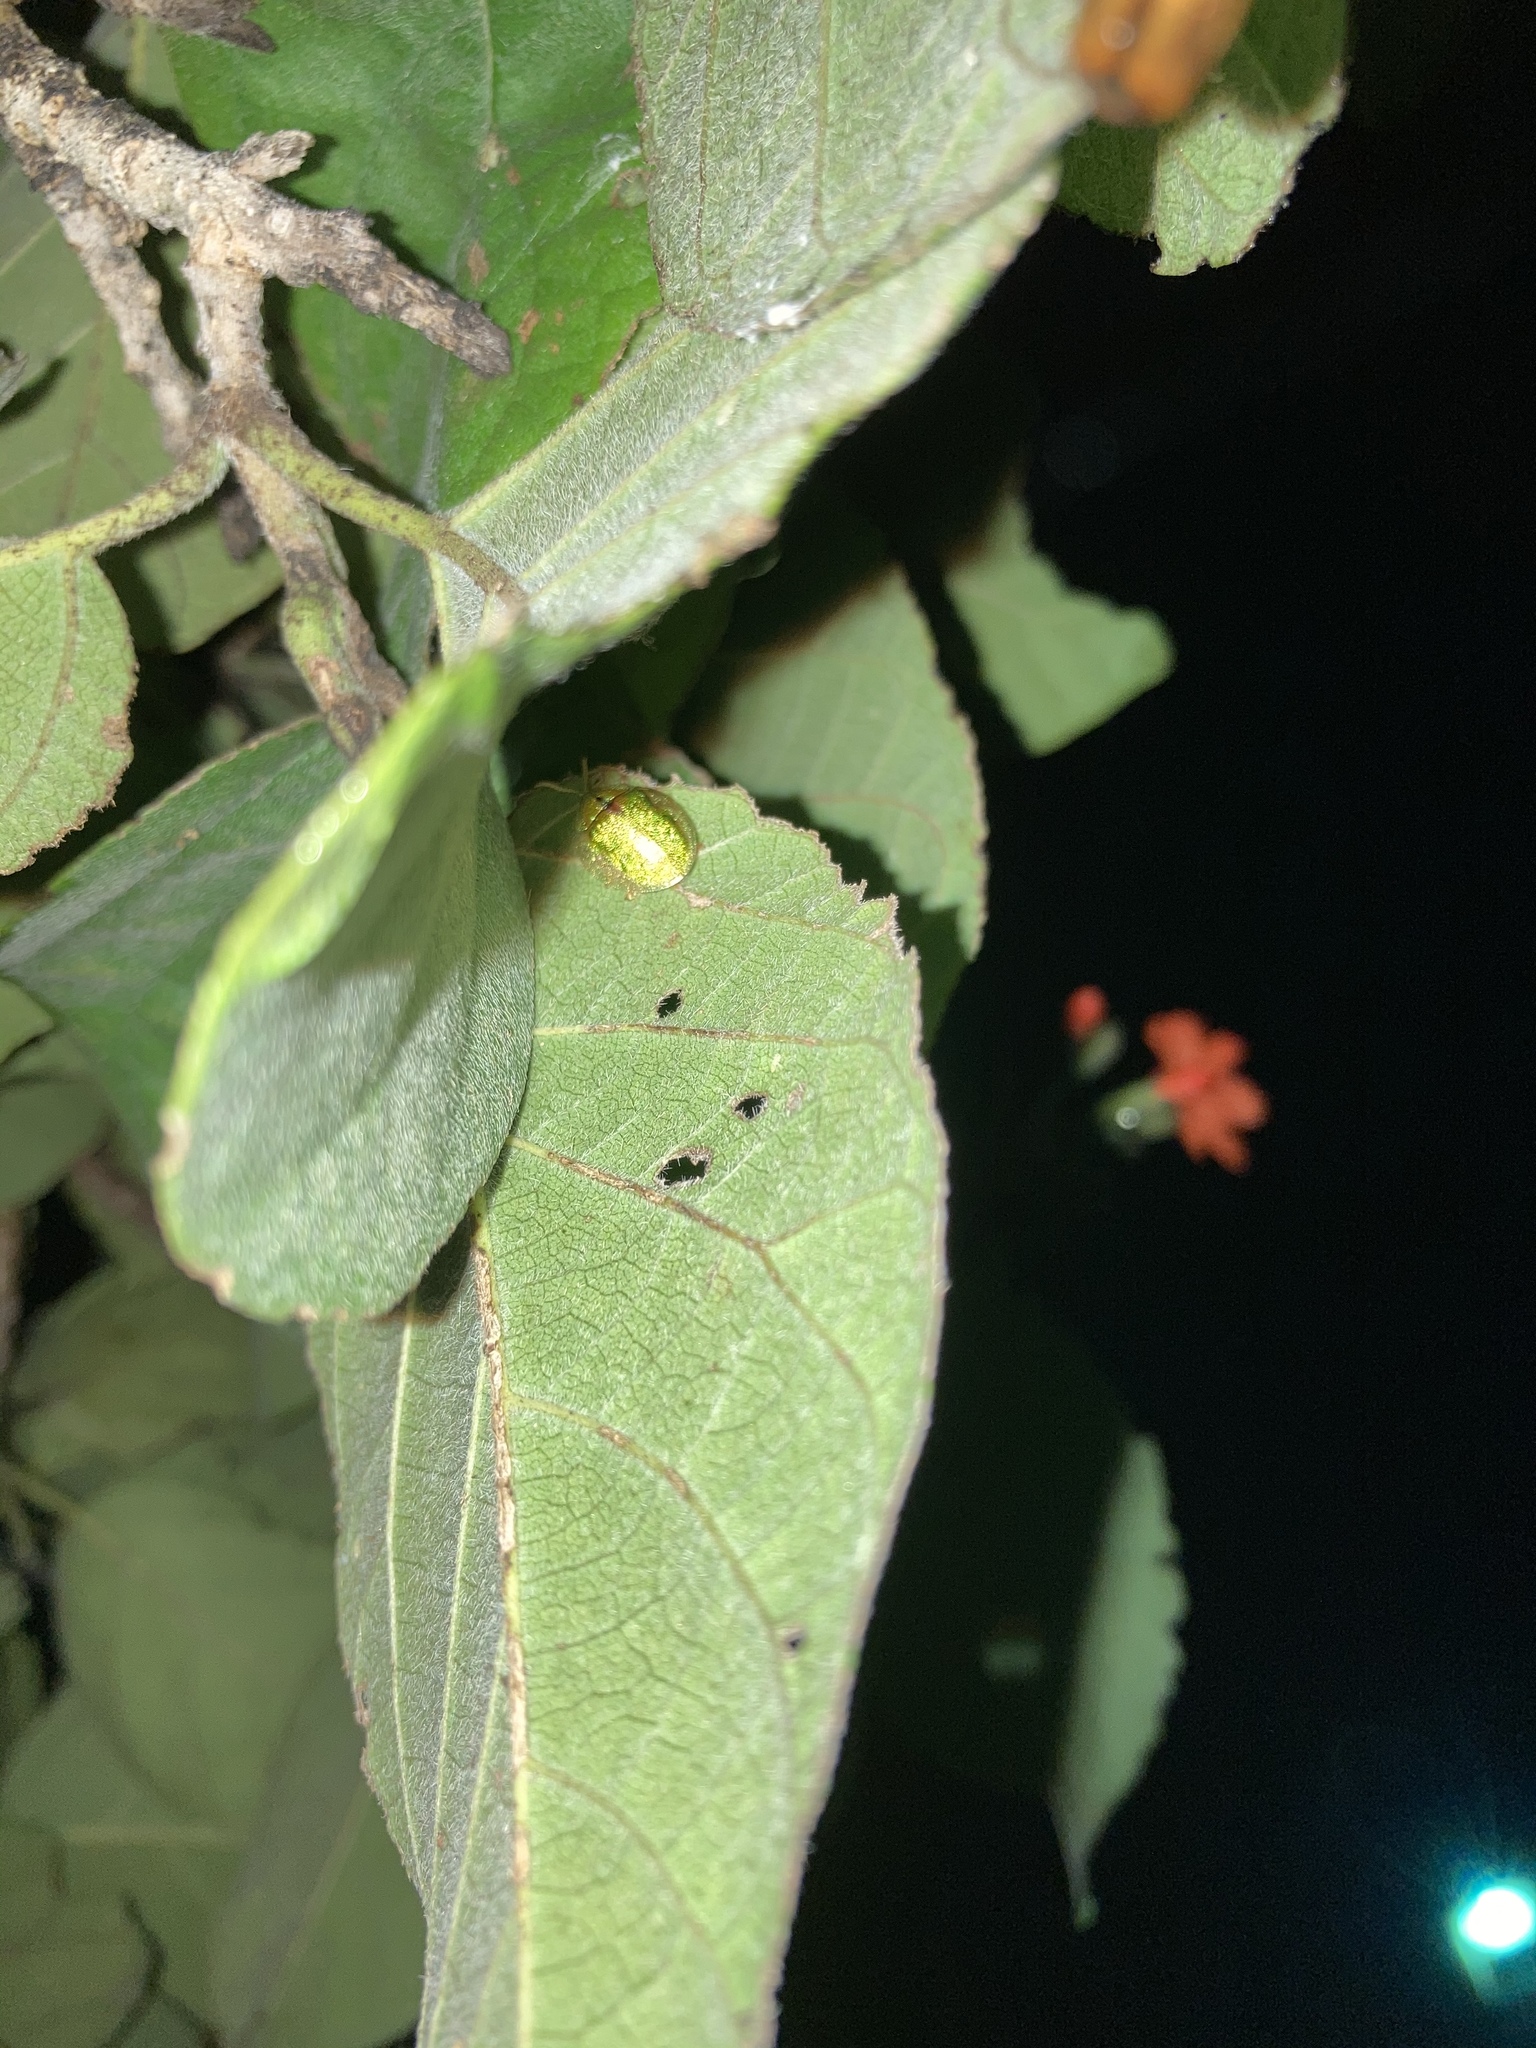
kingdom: Animalia
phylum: Arthropoda
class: Insecta
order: Coleoptera
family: Chrysomelidae
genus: Eurypepla
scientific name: Eurypepla calochroma
